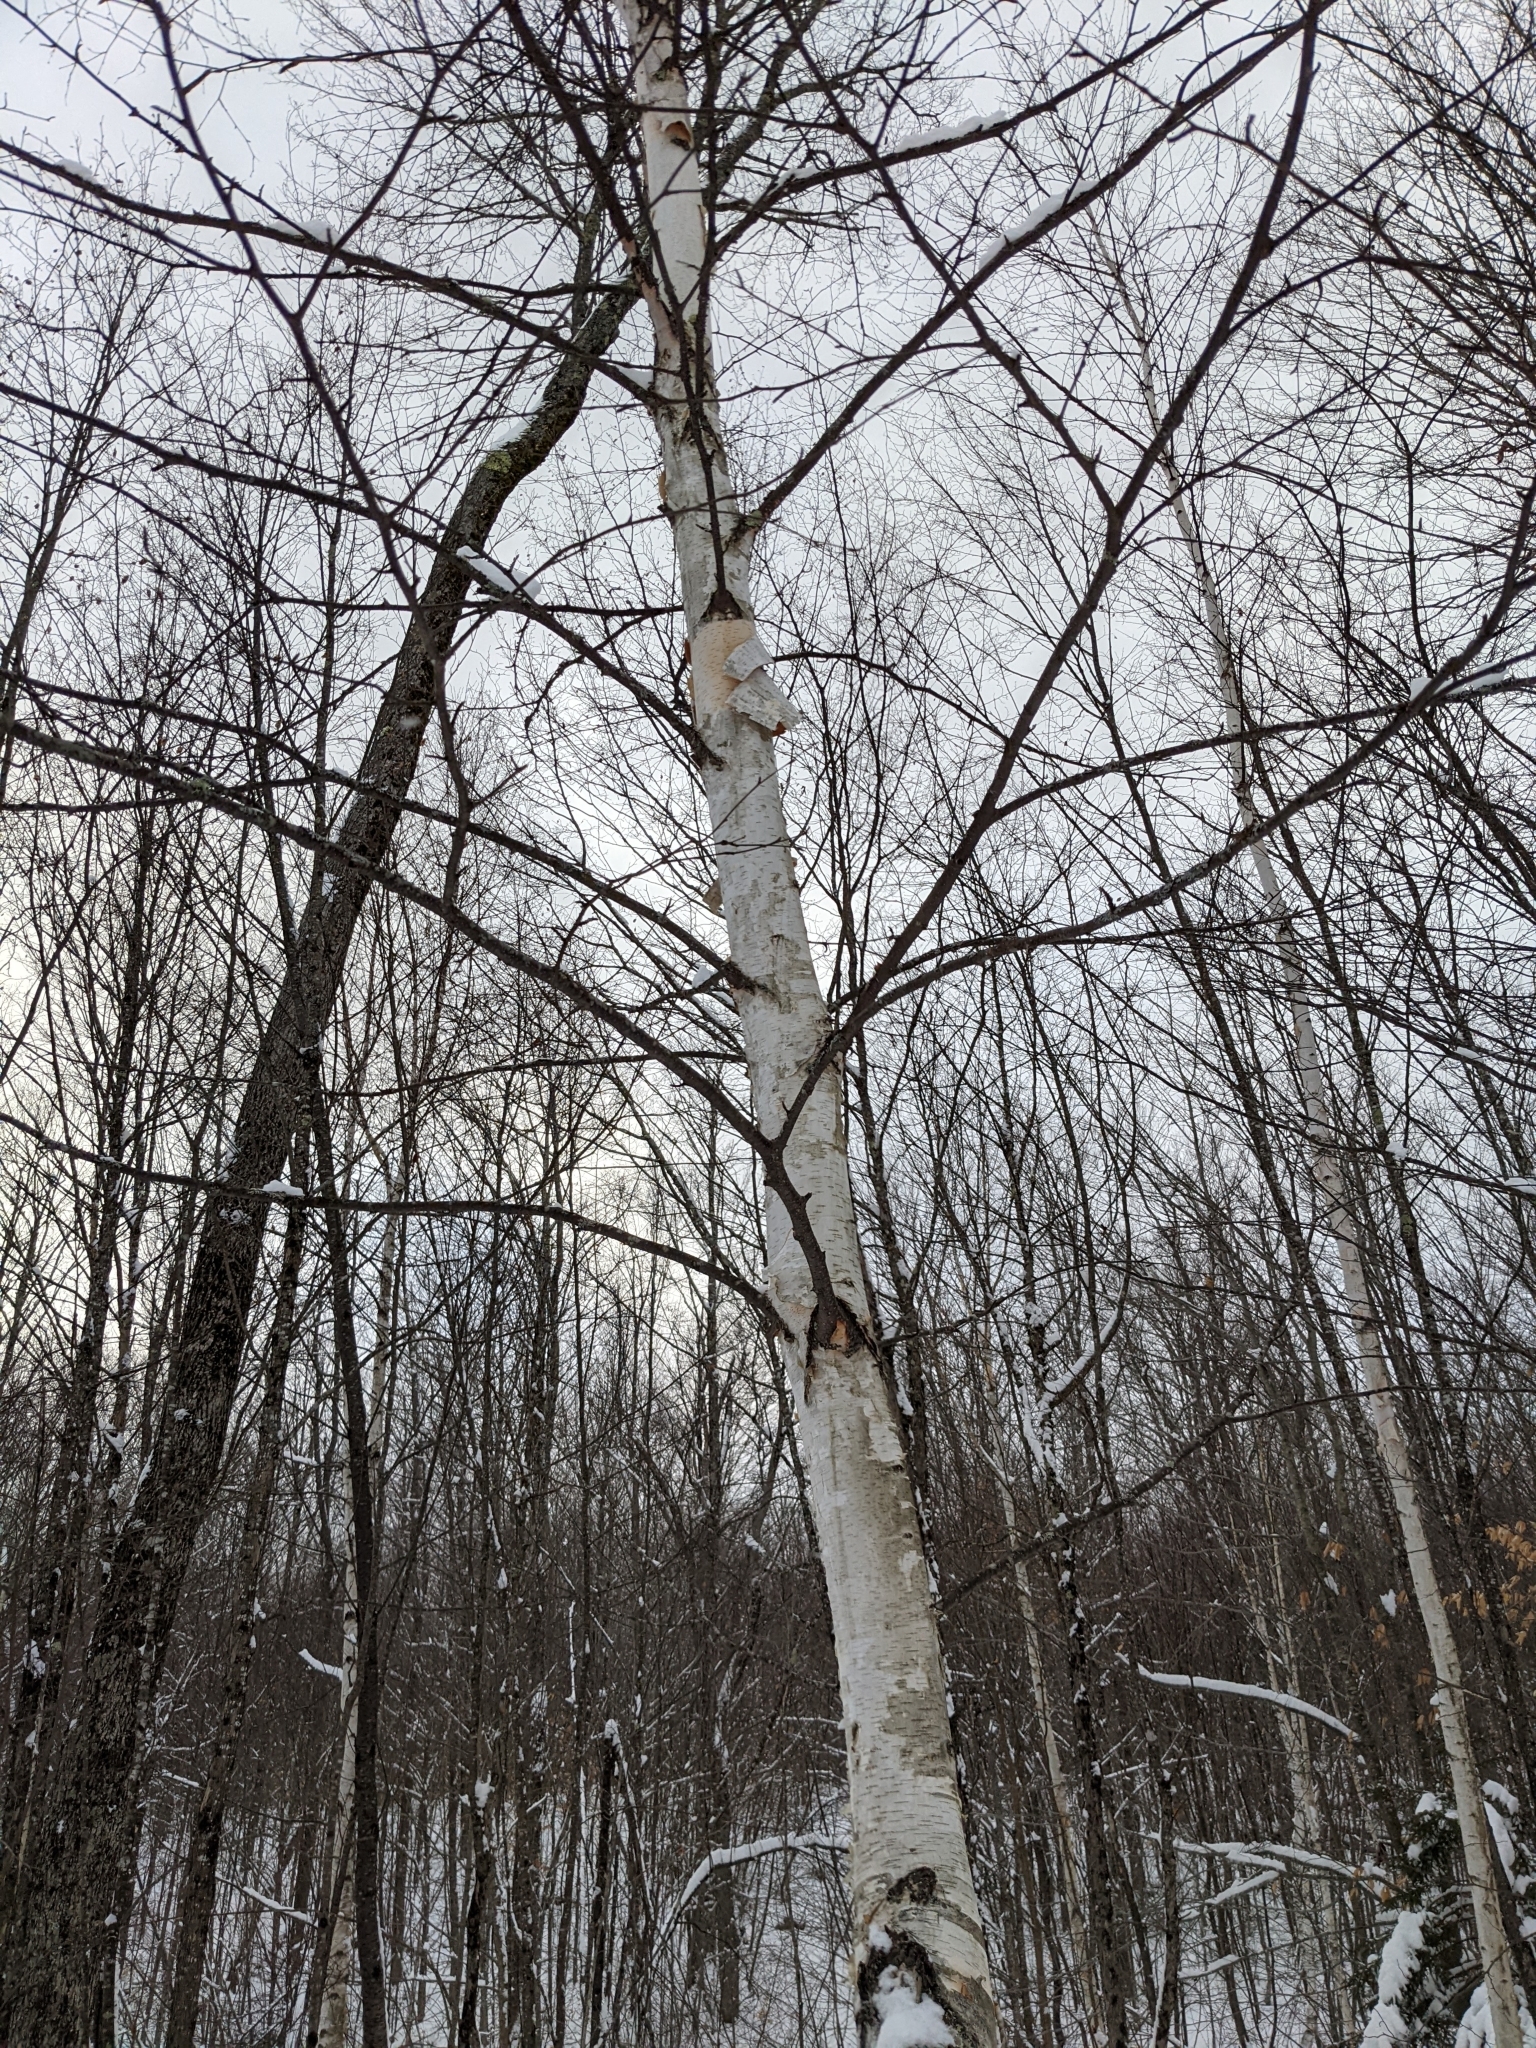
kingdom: Plantae
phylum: Tracheophyta
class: Magnoliopsida
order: Fagales
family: Betulaceae
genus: Betula
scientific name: Betula papyrifera
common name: Paper birch
